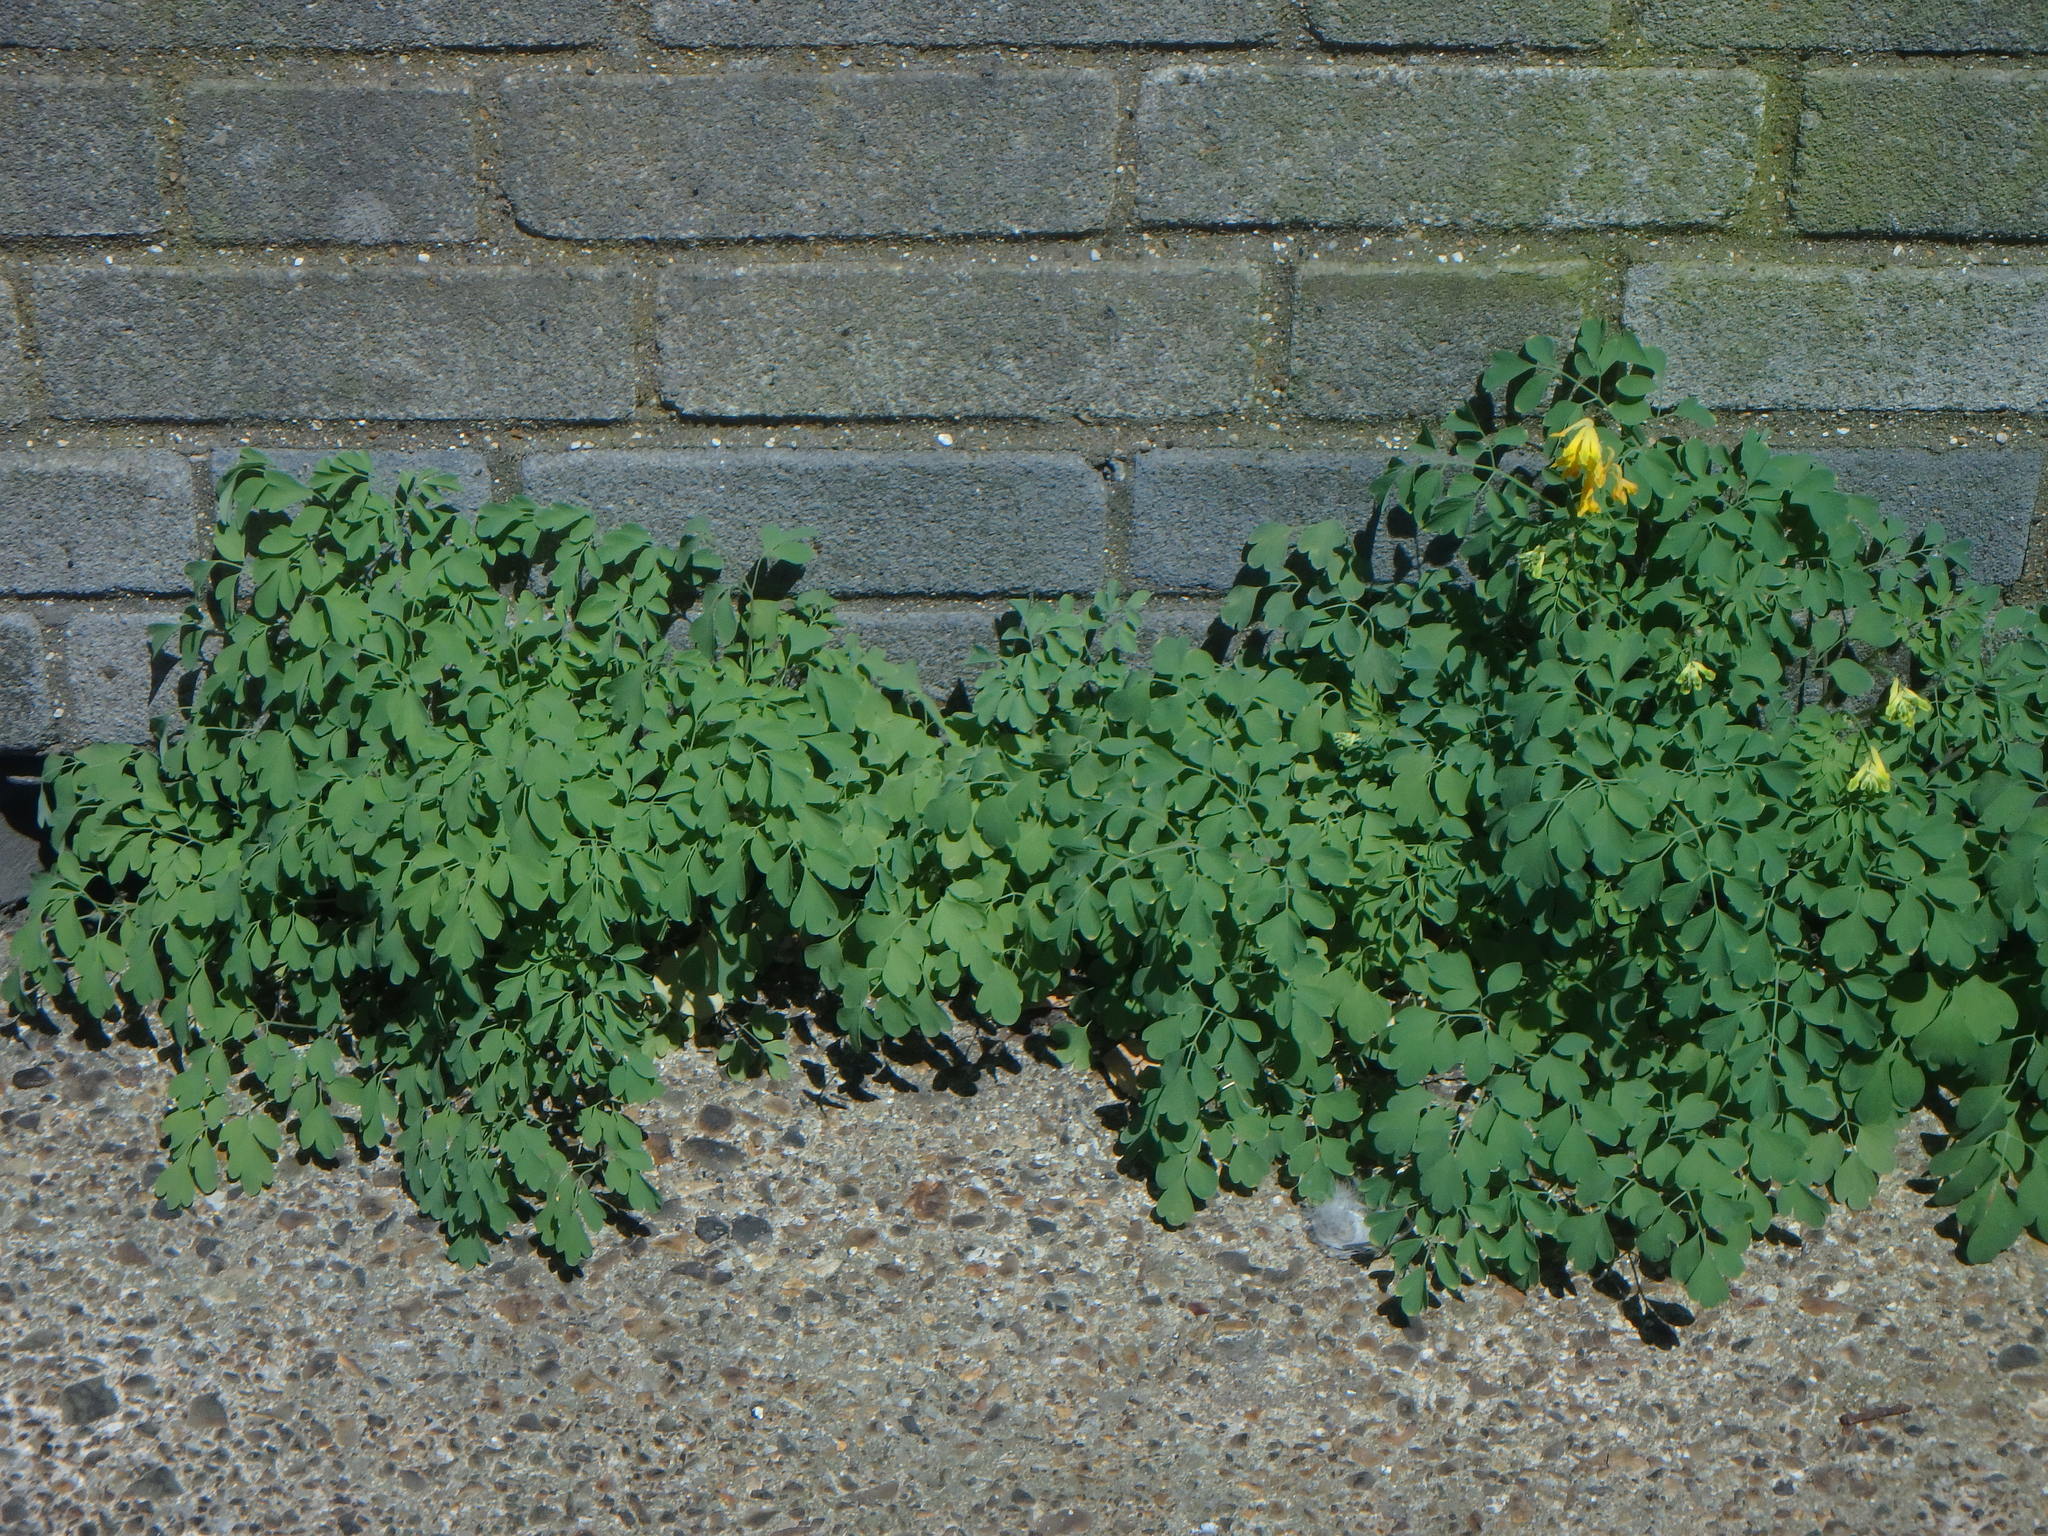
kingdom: Plantae
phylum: Tracheophyta
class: Magnoliopsida
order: Ranunculales
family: Papaveraceae
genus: Pseudofumaria
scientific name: Pseudofumaria lutea
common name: Yellow corydalis
